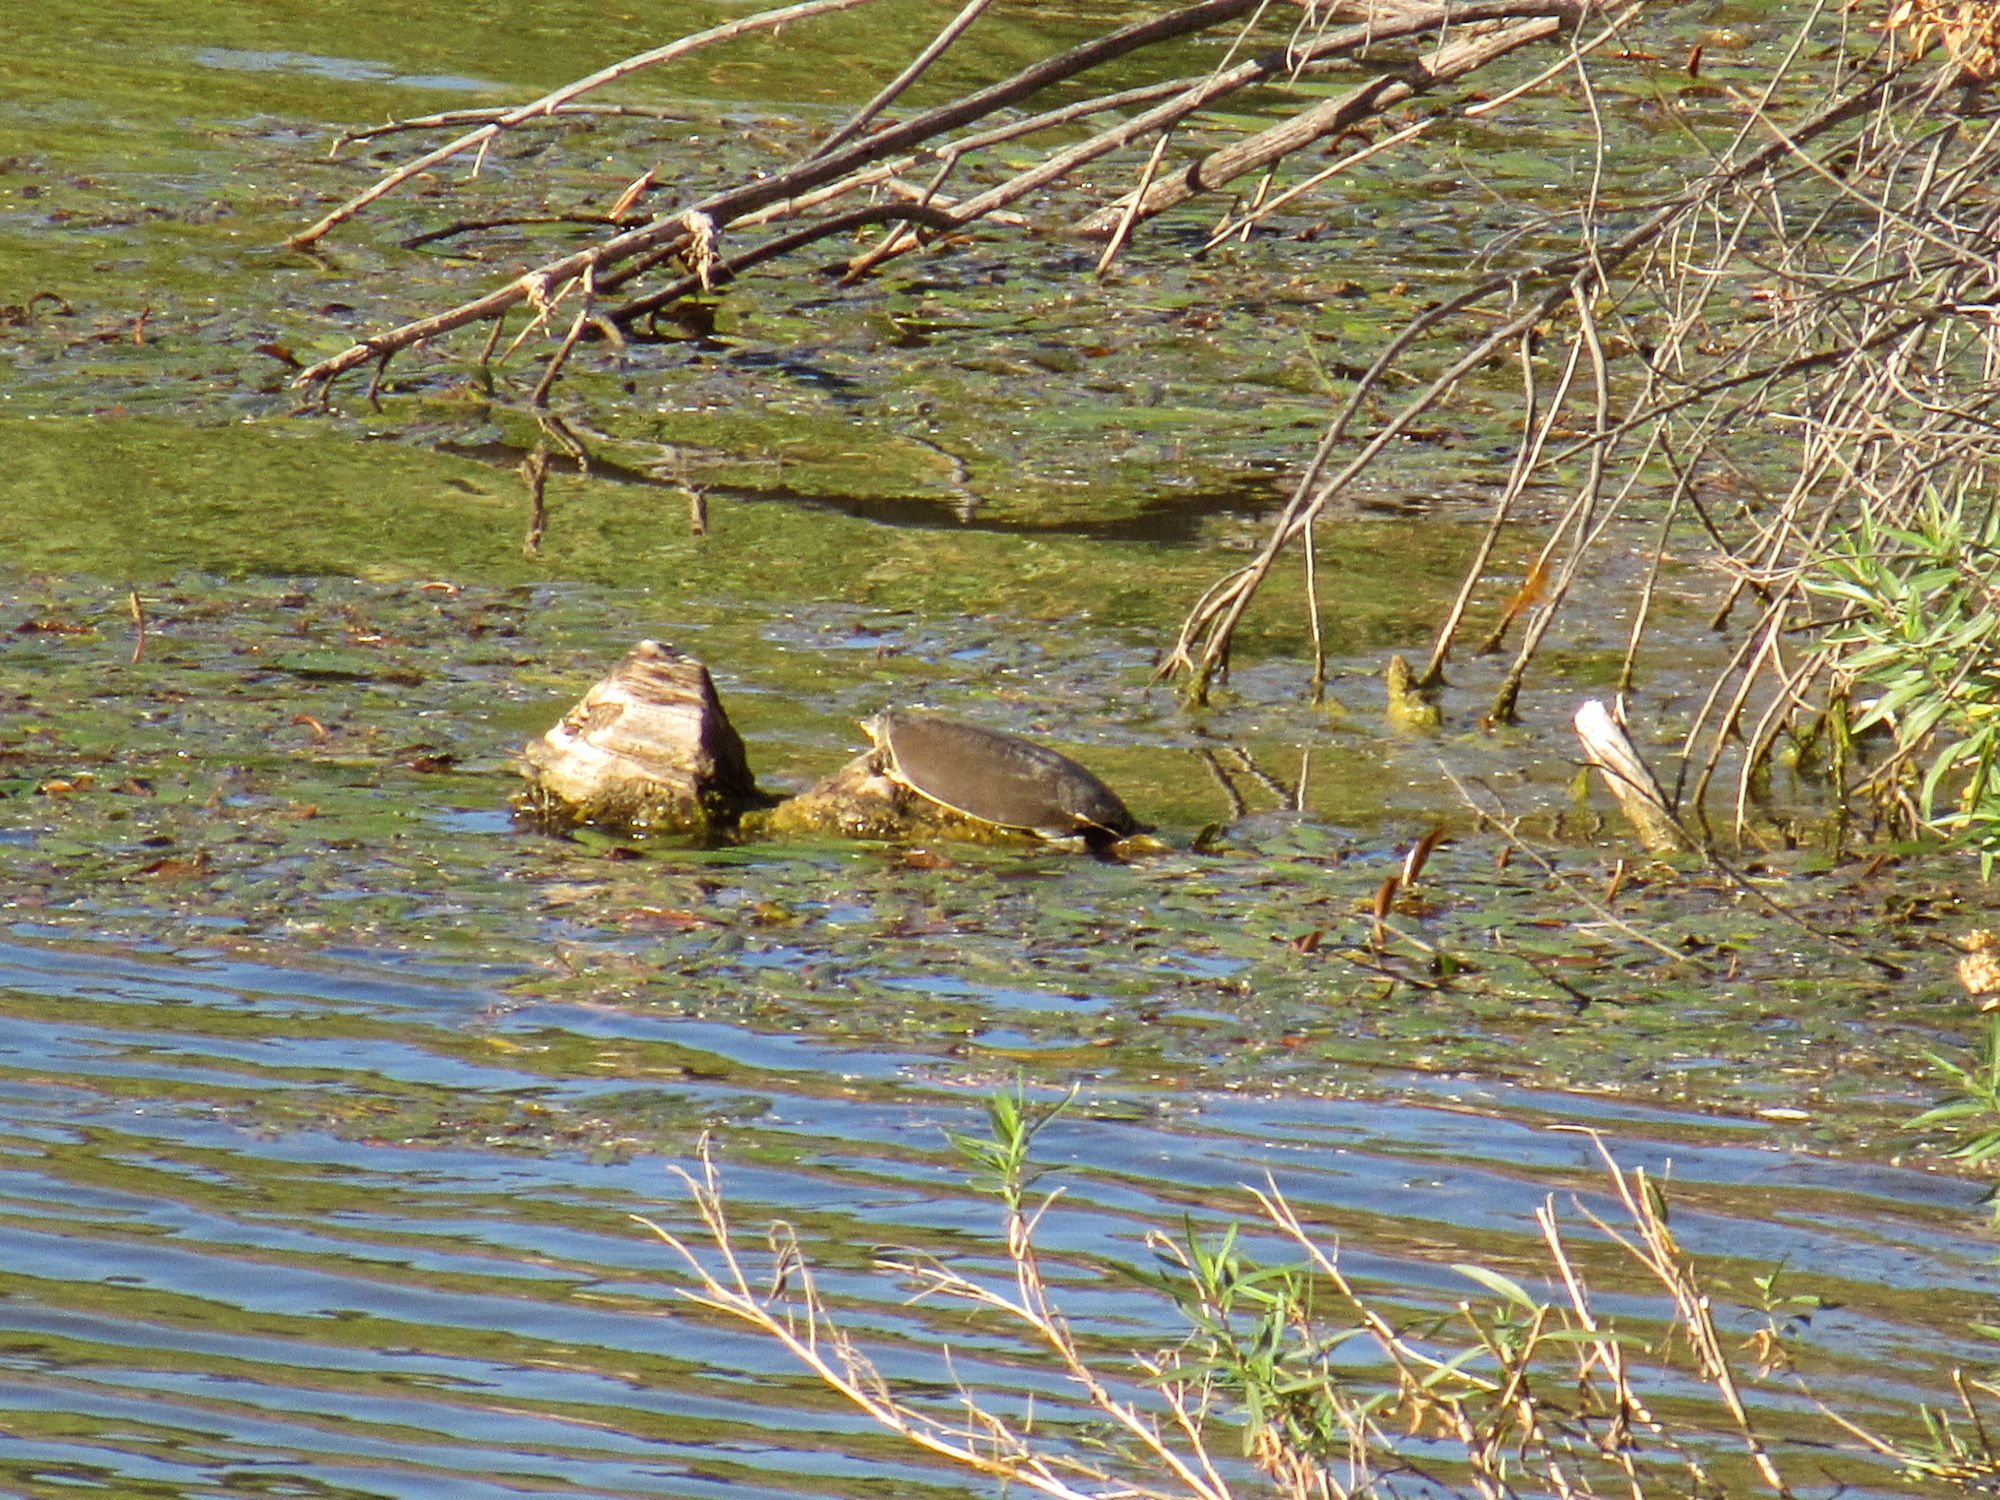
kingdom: Animalia
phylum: Chordata
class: Testudines
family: Trionychidae
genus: Apalone
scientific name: Apalone spinifera
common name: Spiny softshell turtle
